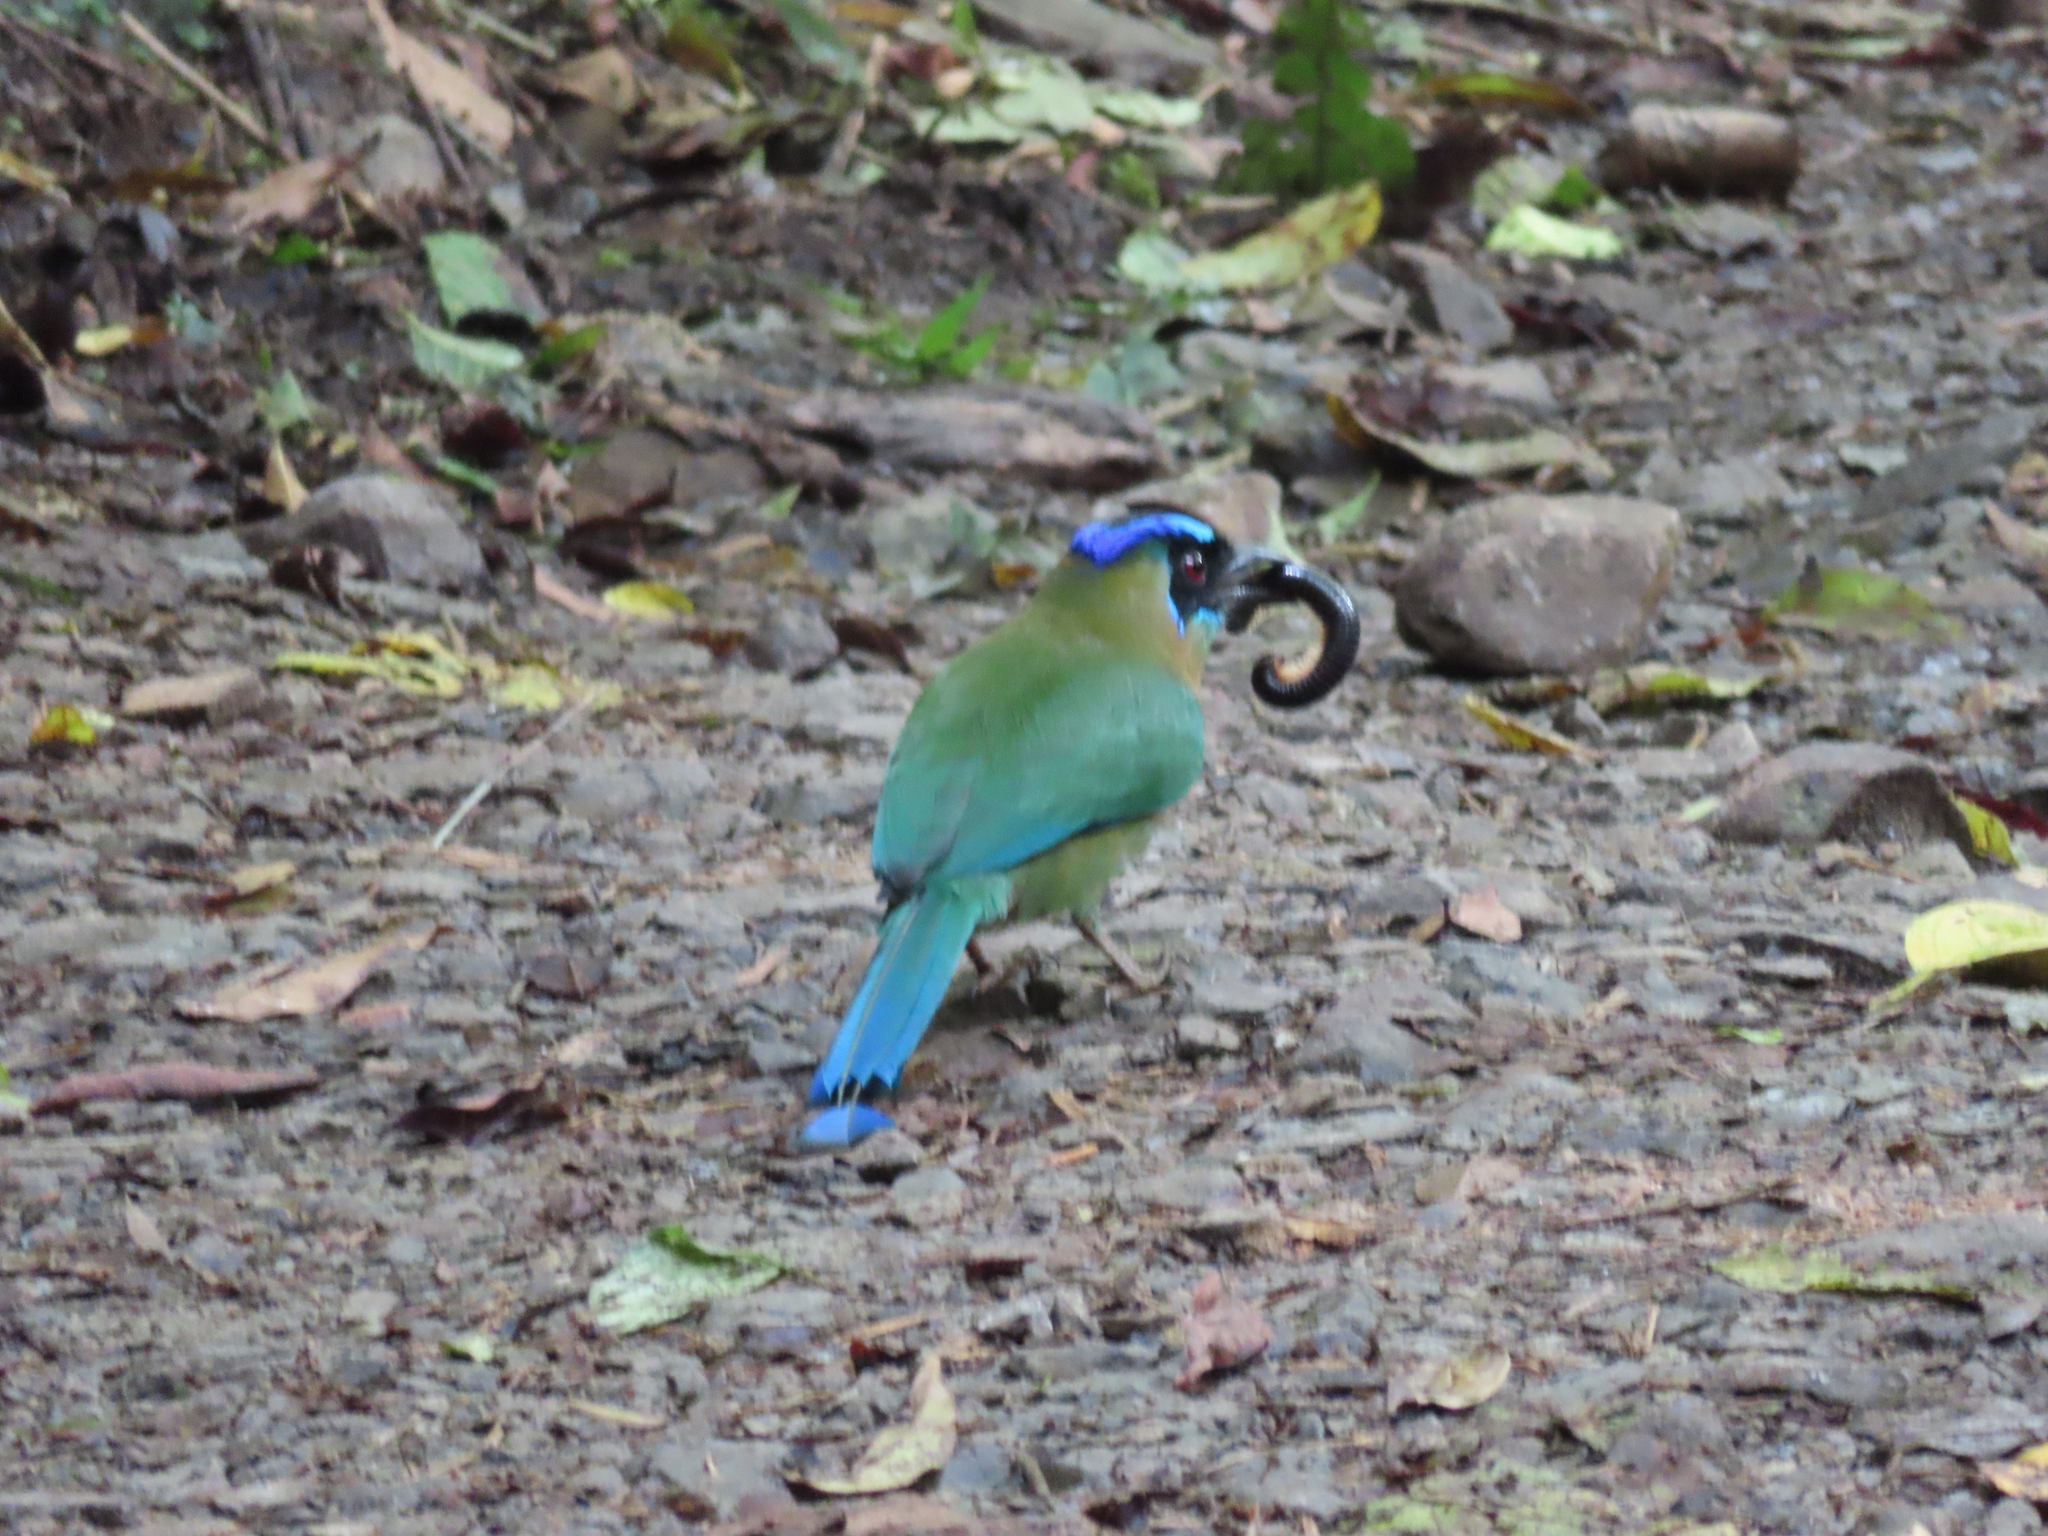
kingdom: Animalia
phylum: Chordata
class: Aves
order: Coraciiformes
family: Momotidae
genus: Momotus
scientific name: Momotus lessonii
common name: Lesson's motmot
